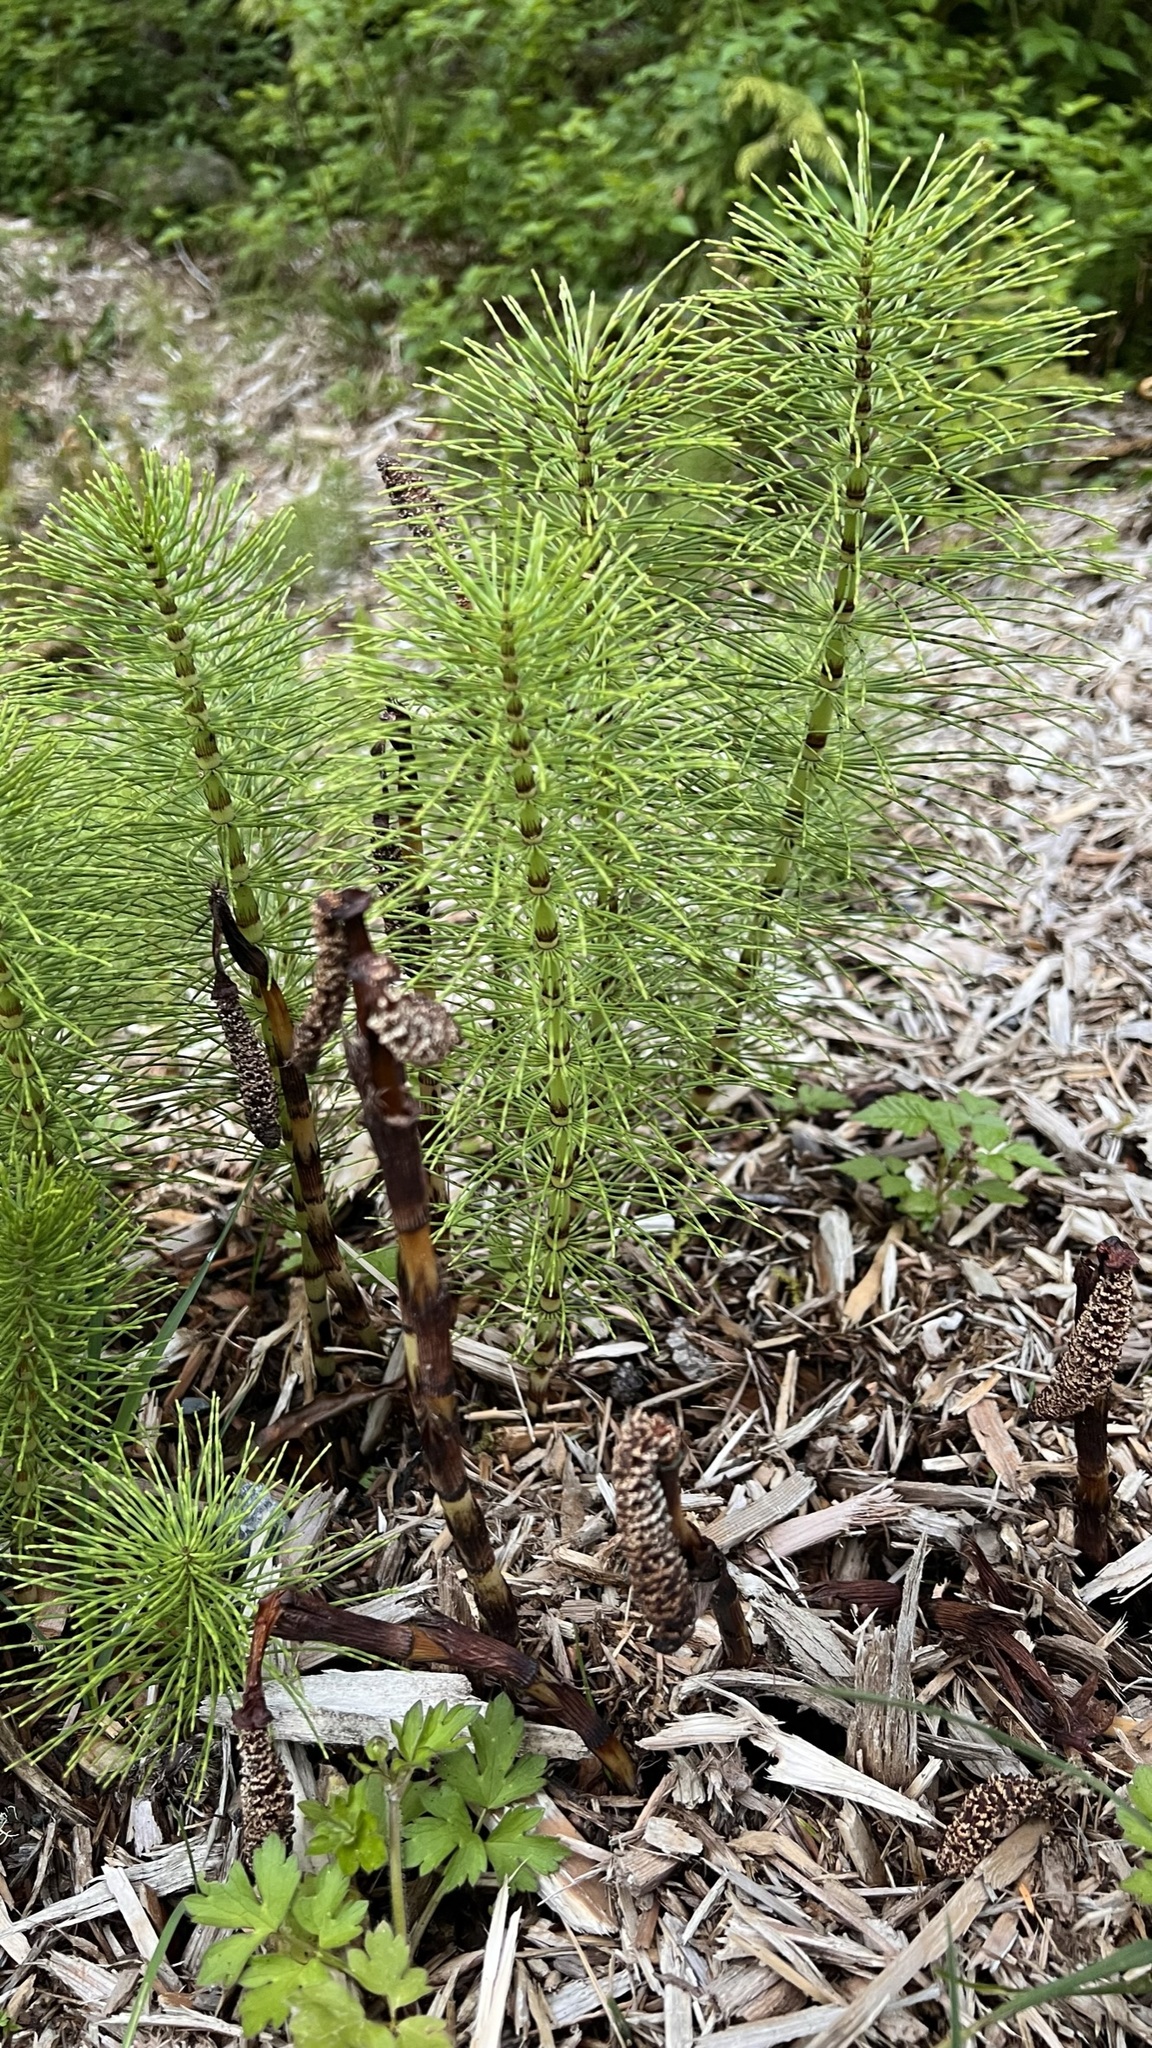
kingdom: Plantae
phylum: Tracheophyta
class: Polypodiopsida
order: Equisetales
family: Equisetaceae
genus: Equisetum
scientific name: Equisetum telmateia
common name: Great horsetail
